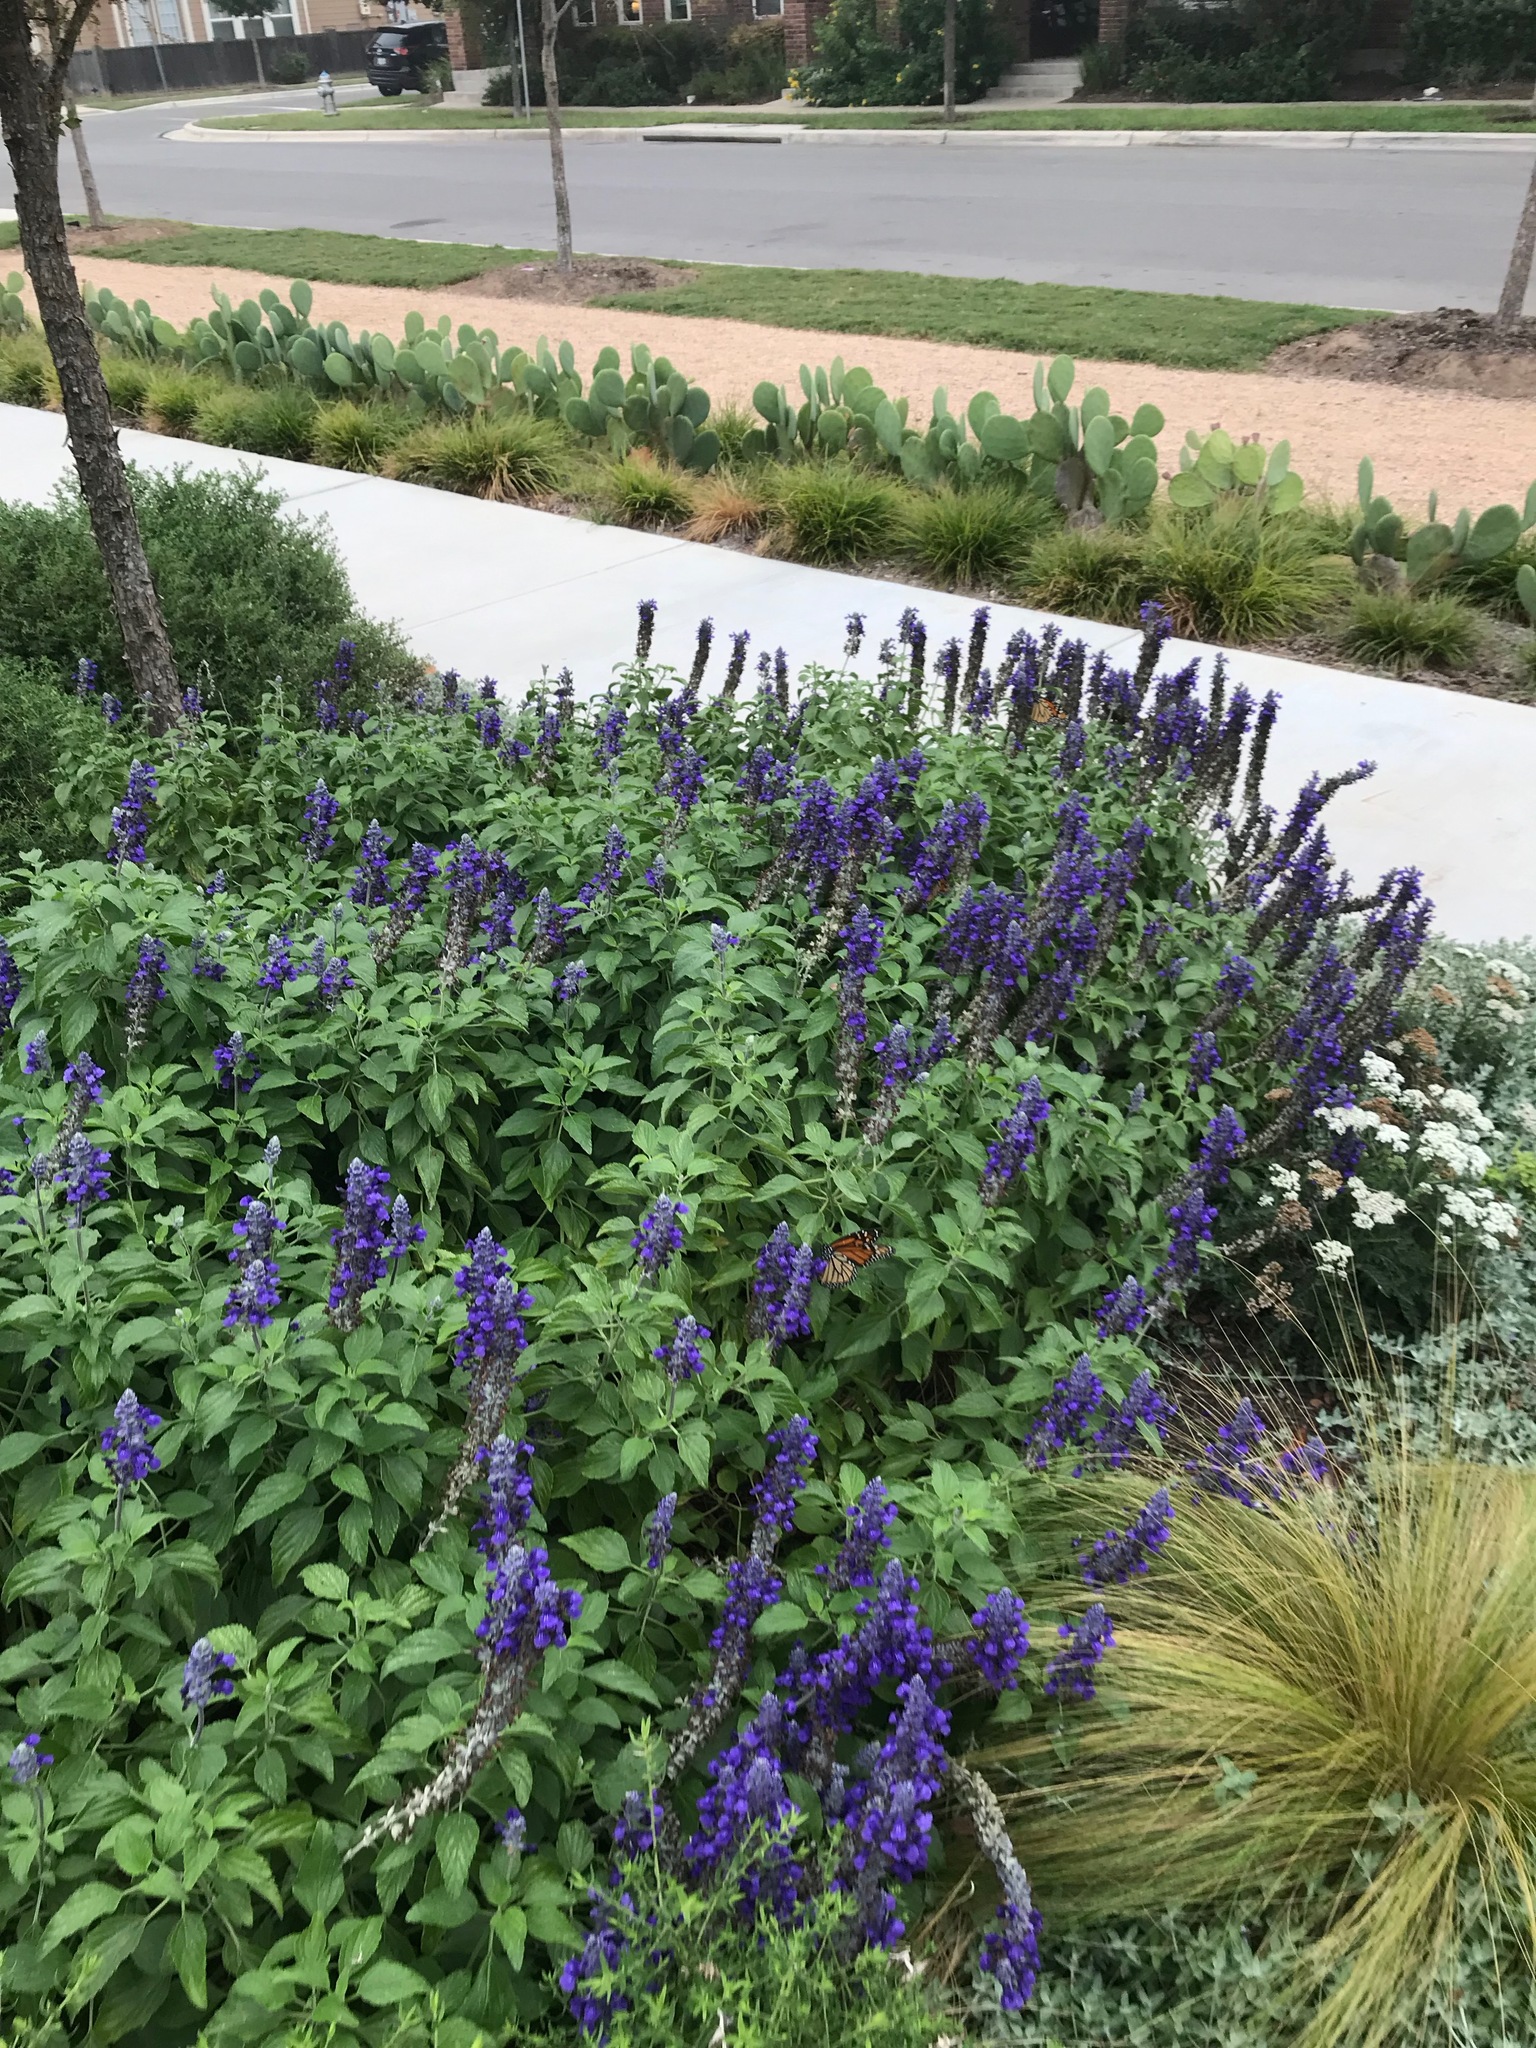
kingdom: Animalia
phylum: Arthropoda
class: Insecta
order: Lepidoptera
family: Nymphalidae
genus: Danaus
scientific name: Danaus plexippus
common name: Monarch
